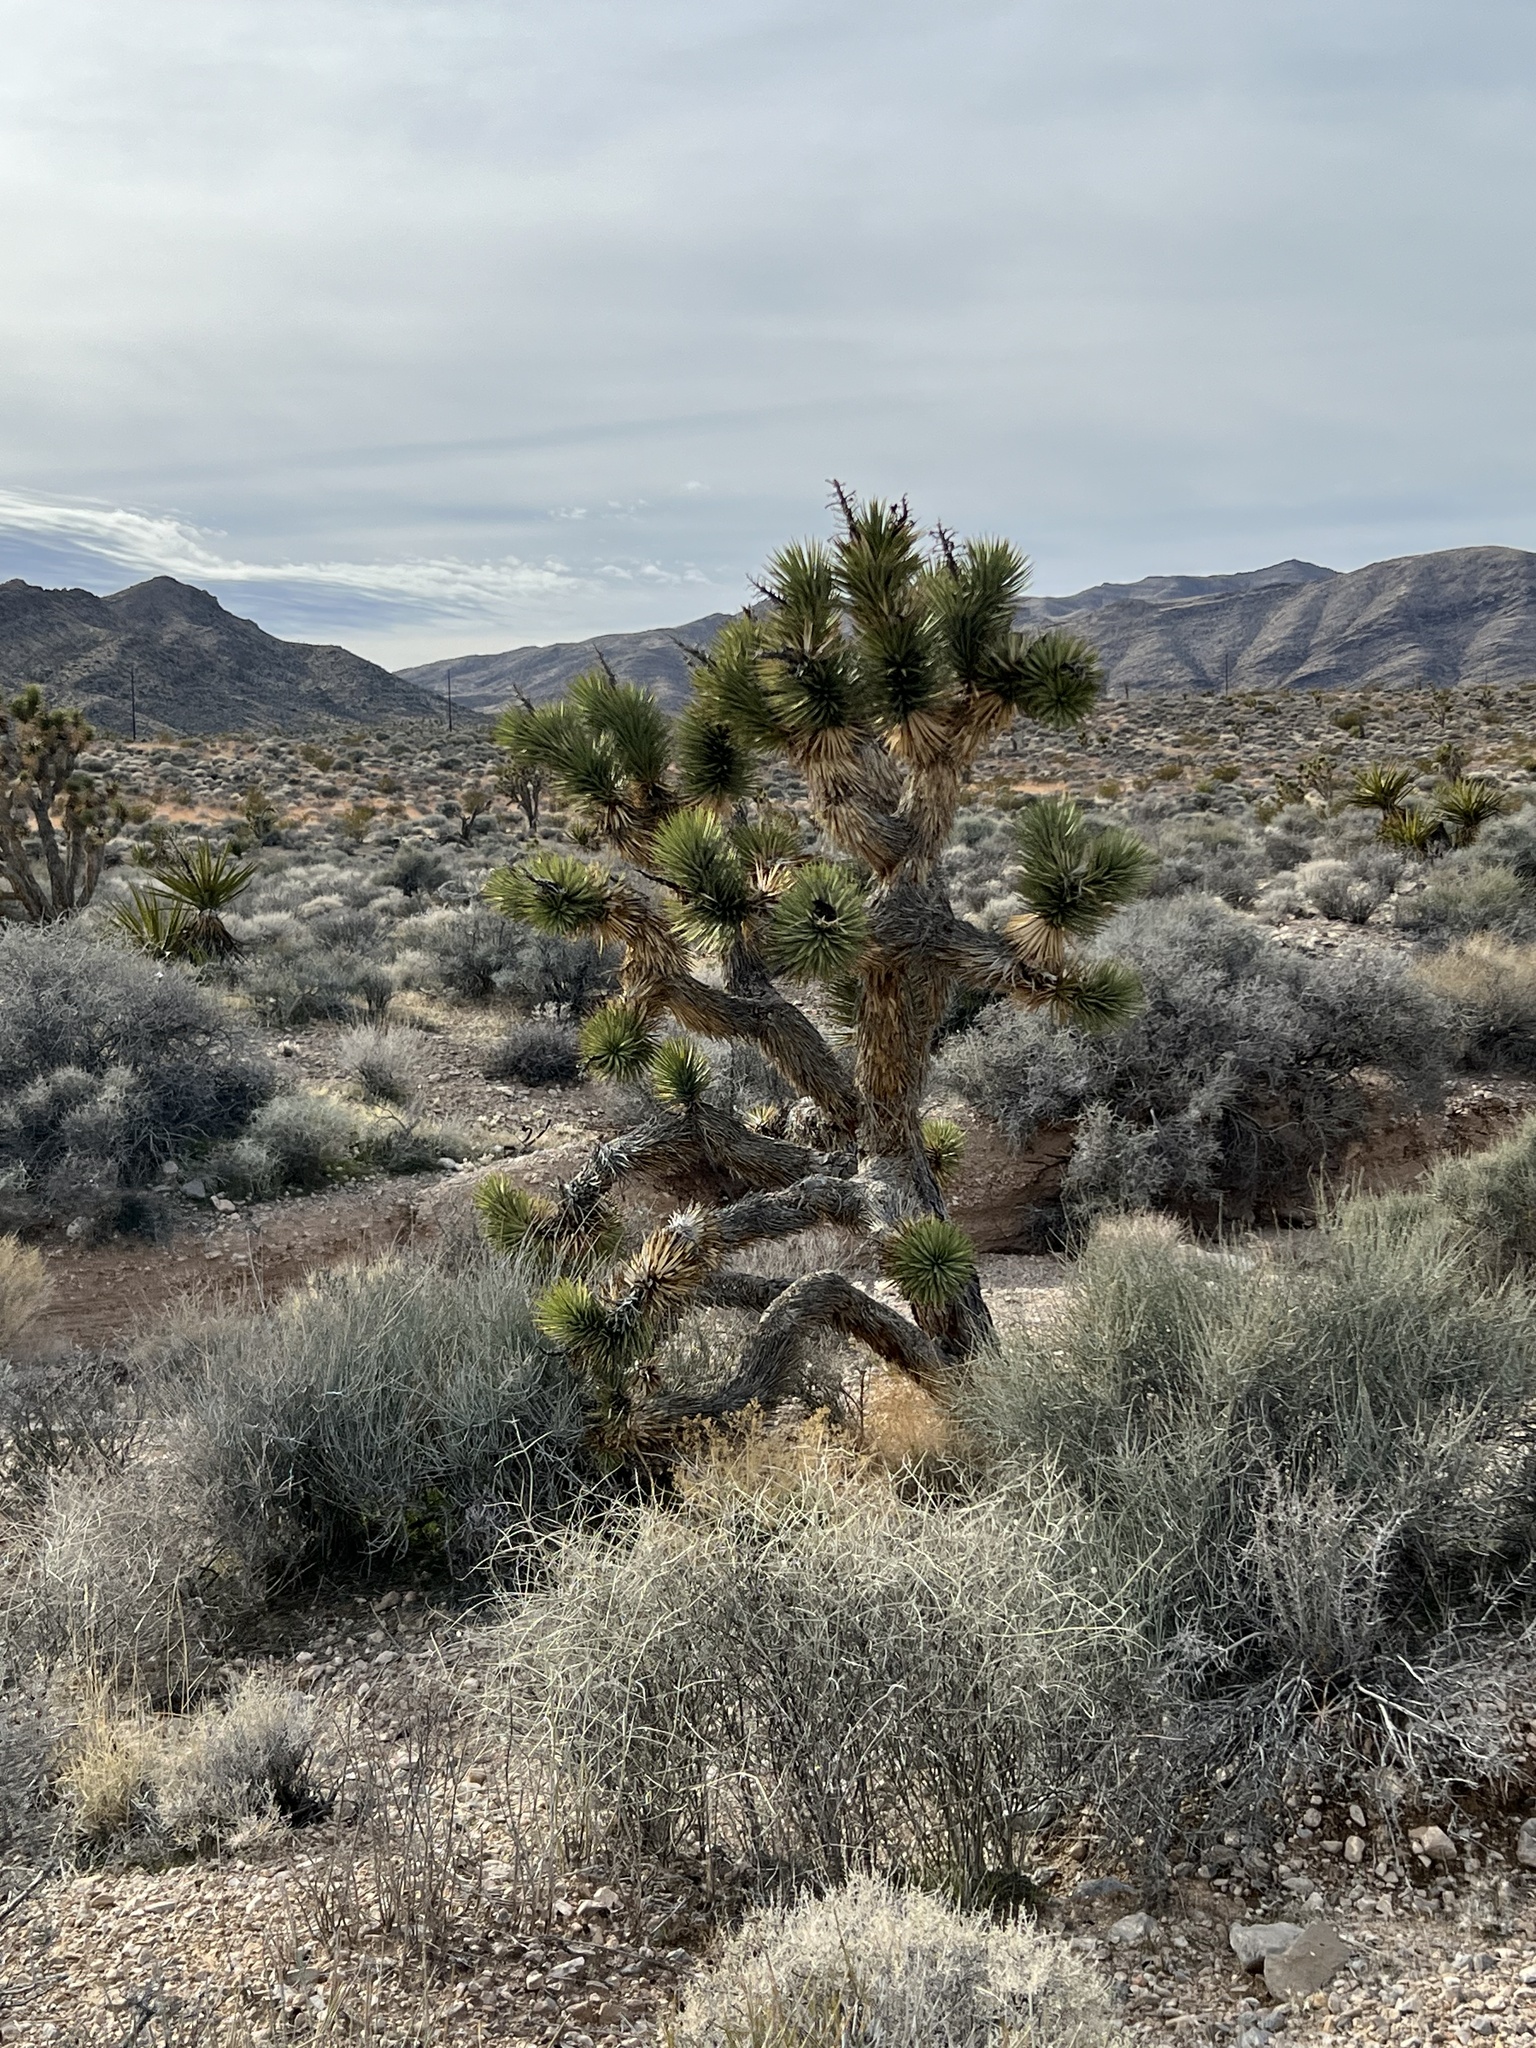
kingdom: Plantae
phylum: Tracheophyta
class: Liliopsida
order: Asparagales
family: Asparagaceae
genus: Yucca
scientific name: Yucca brevifolia
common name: Joshua tree
